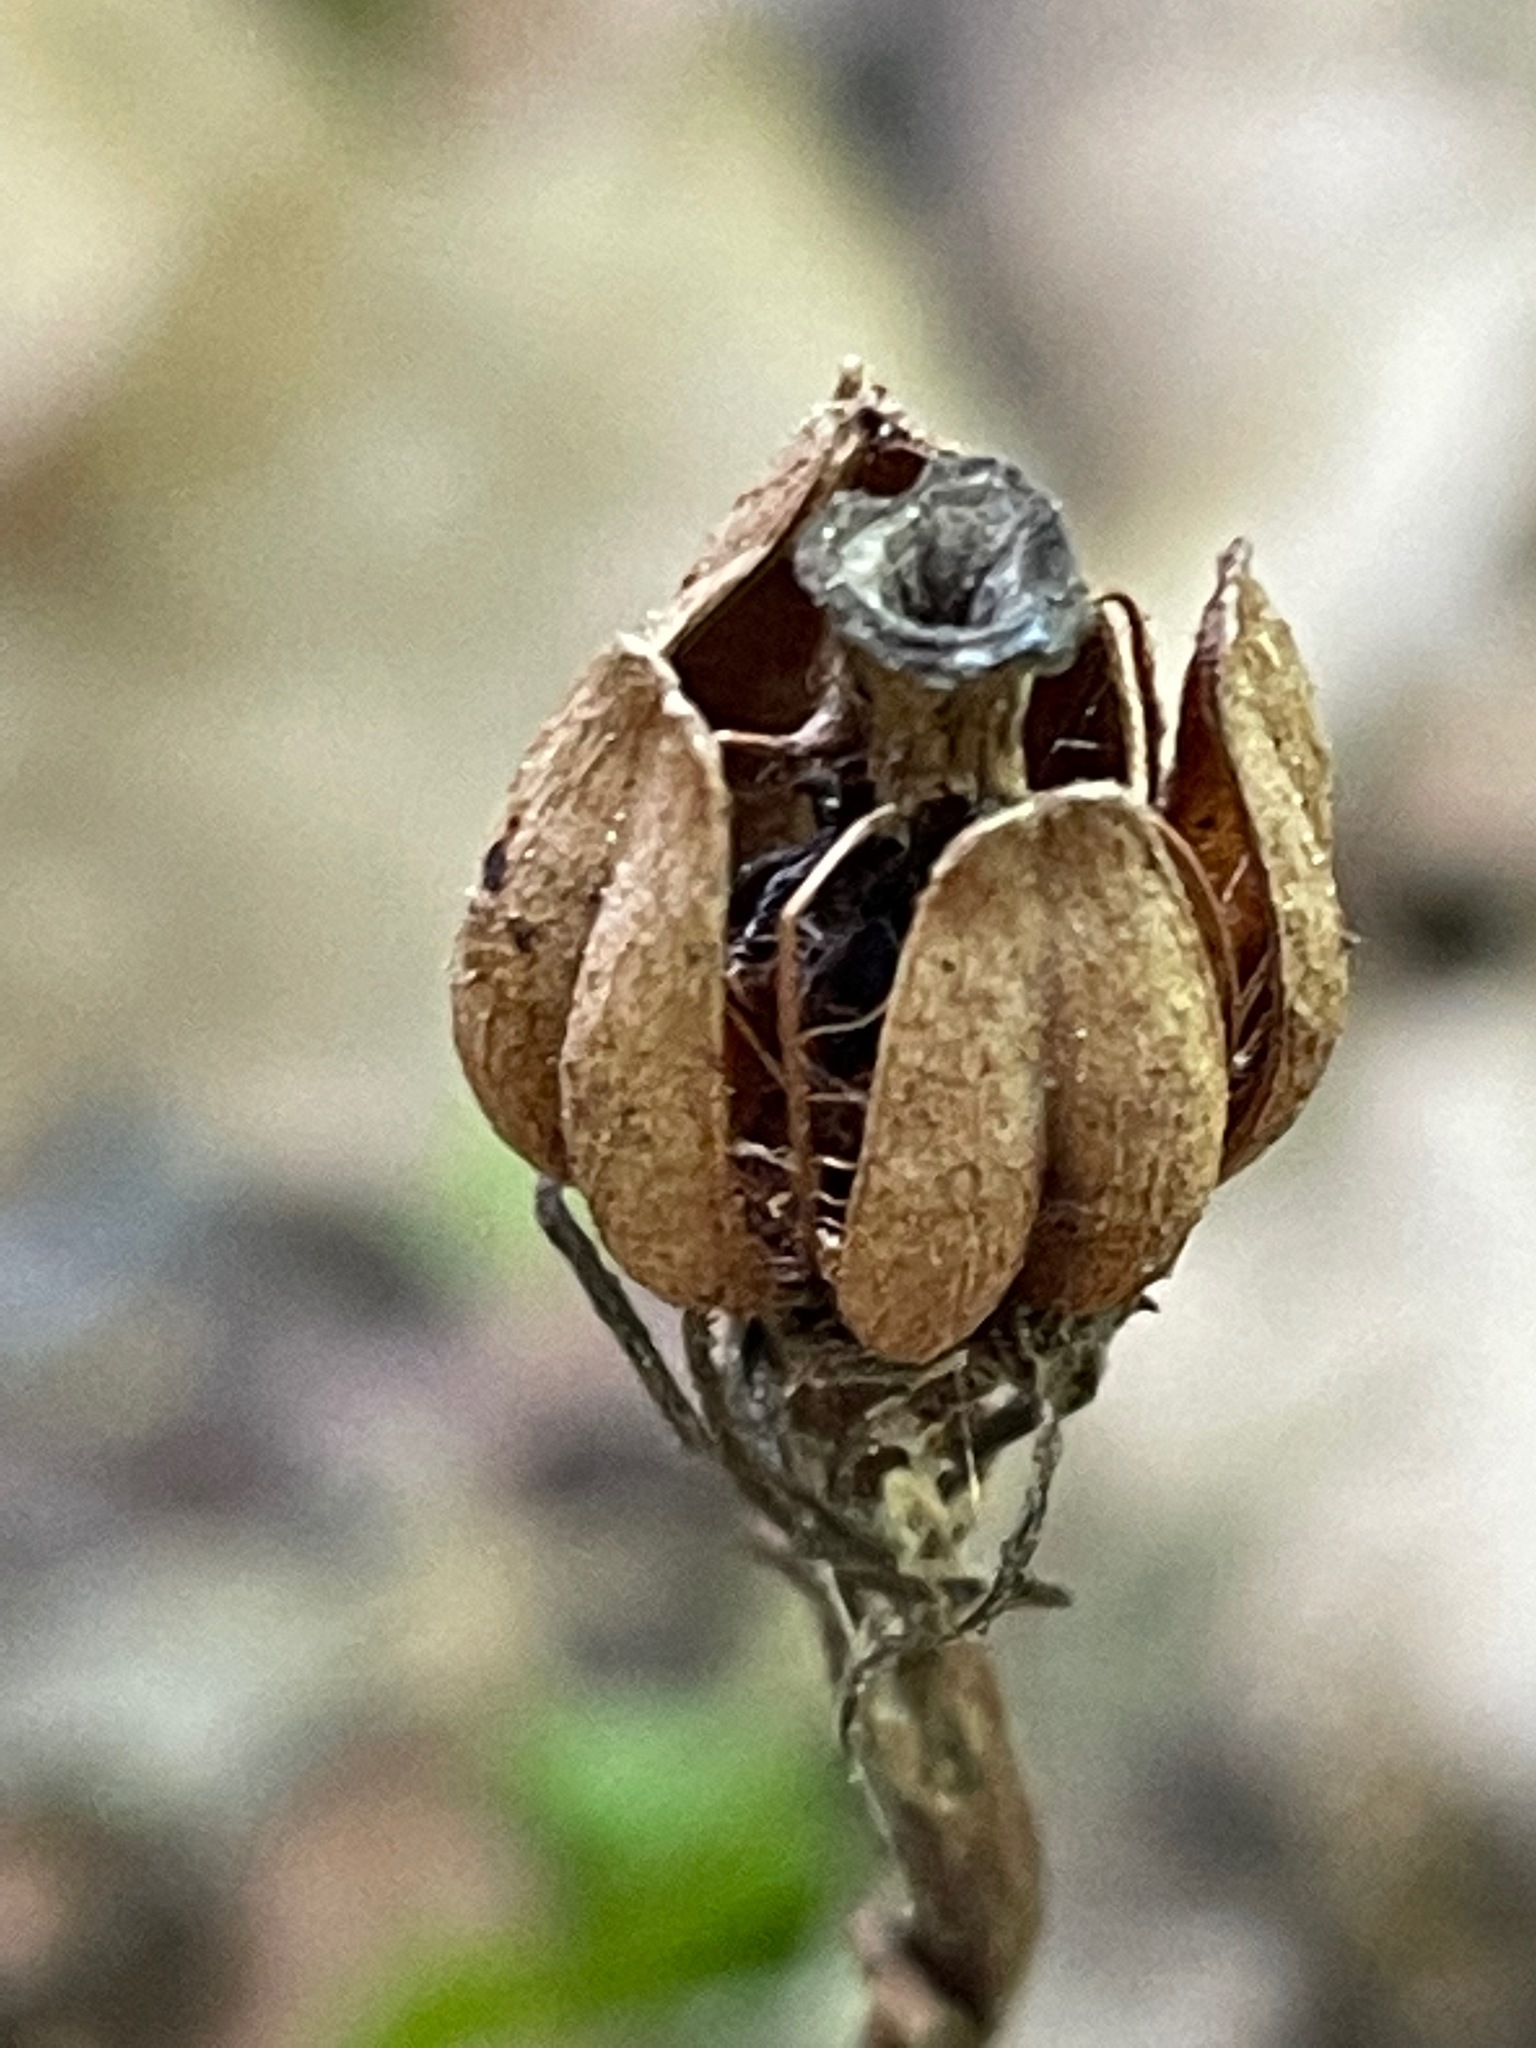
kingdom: Plantae
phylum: Tracheophyta
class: Magnoliopsida
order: Ericales
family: Ericaceae
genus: Monotropa
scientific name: Monotropa uniflora
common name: Convulsion root
